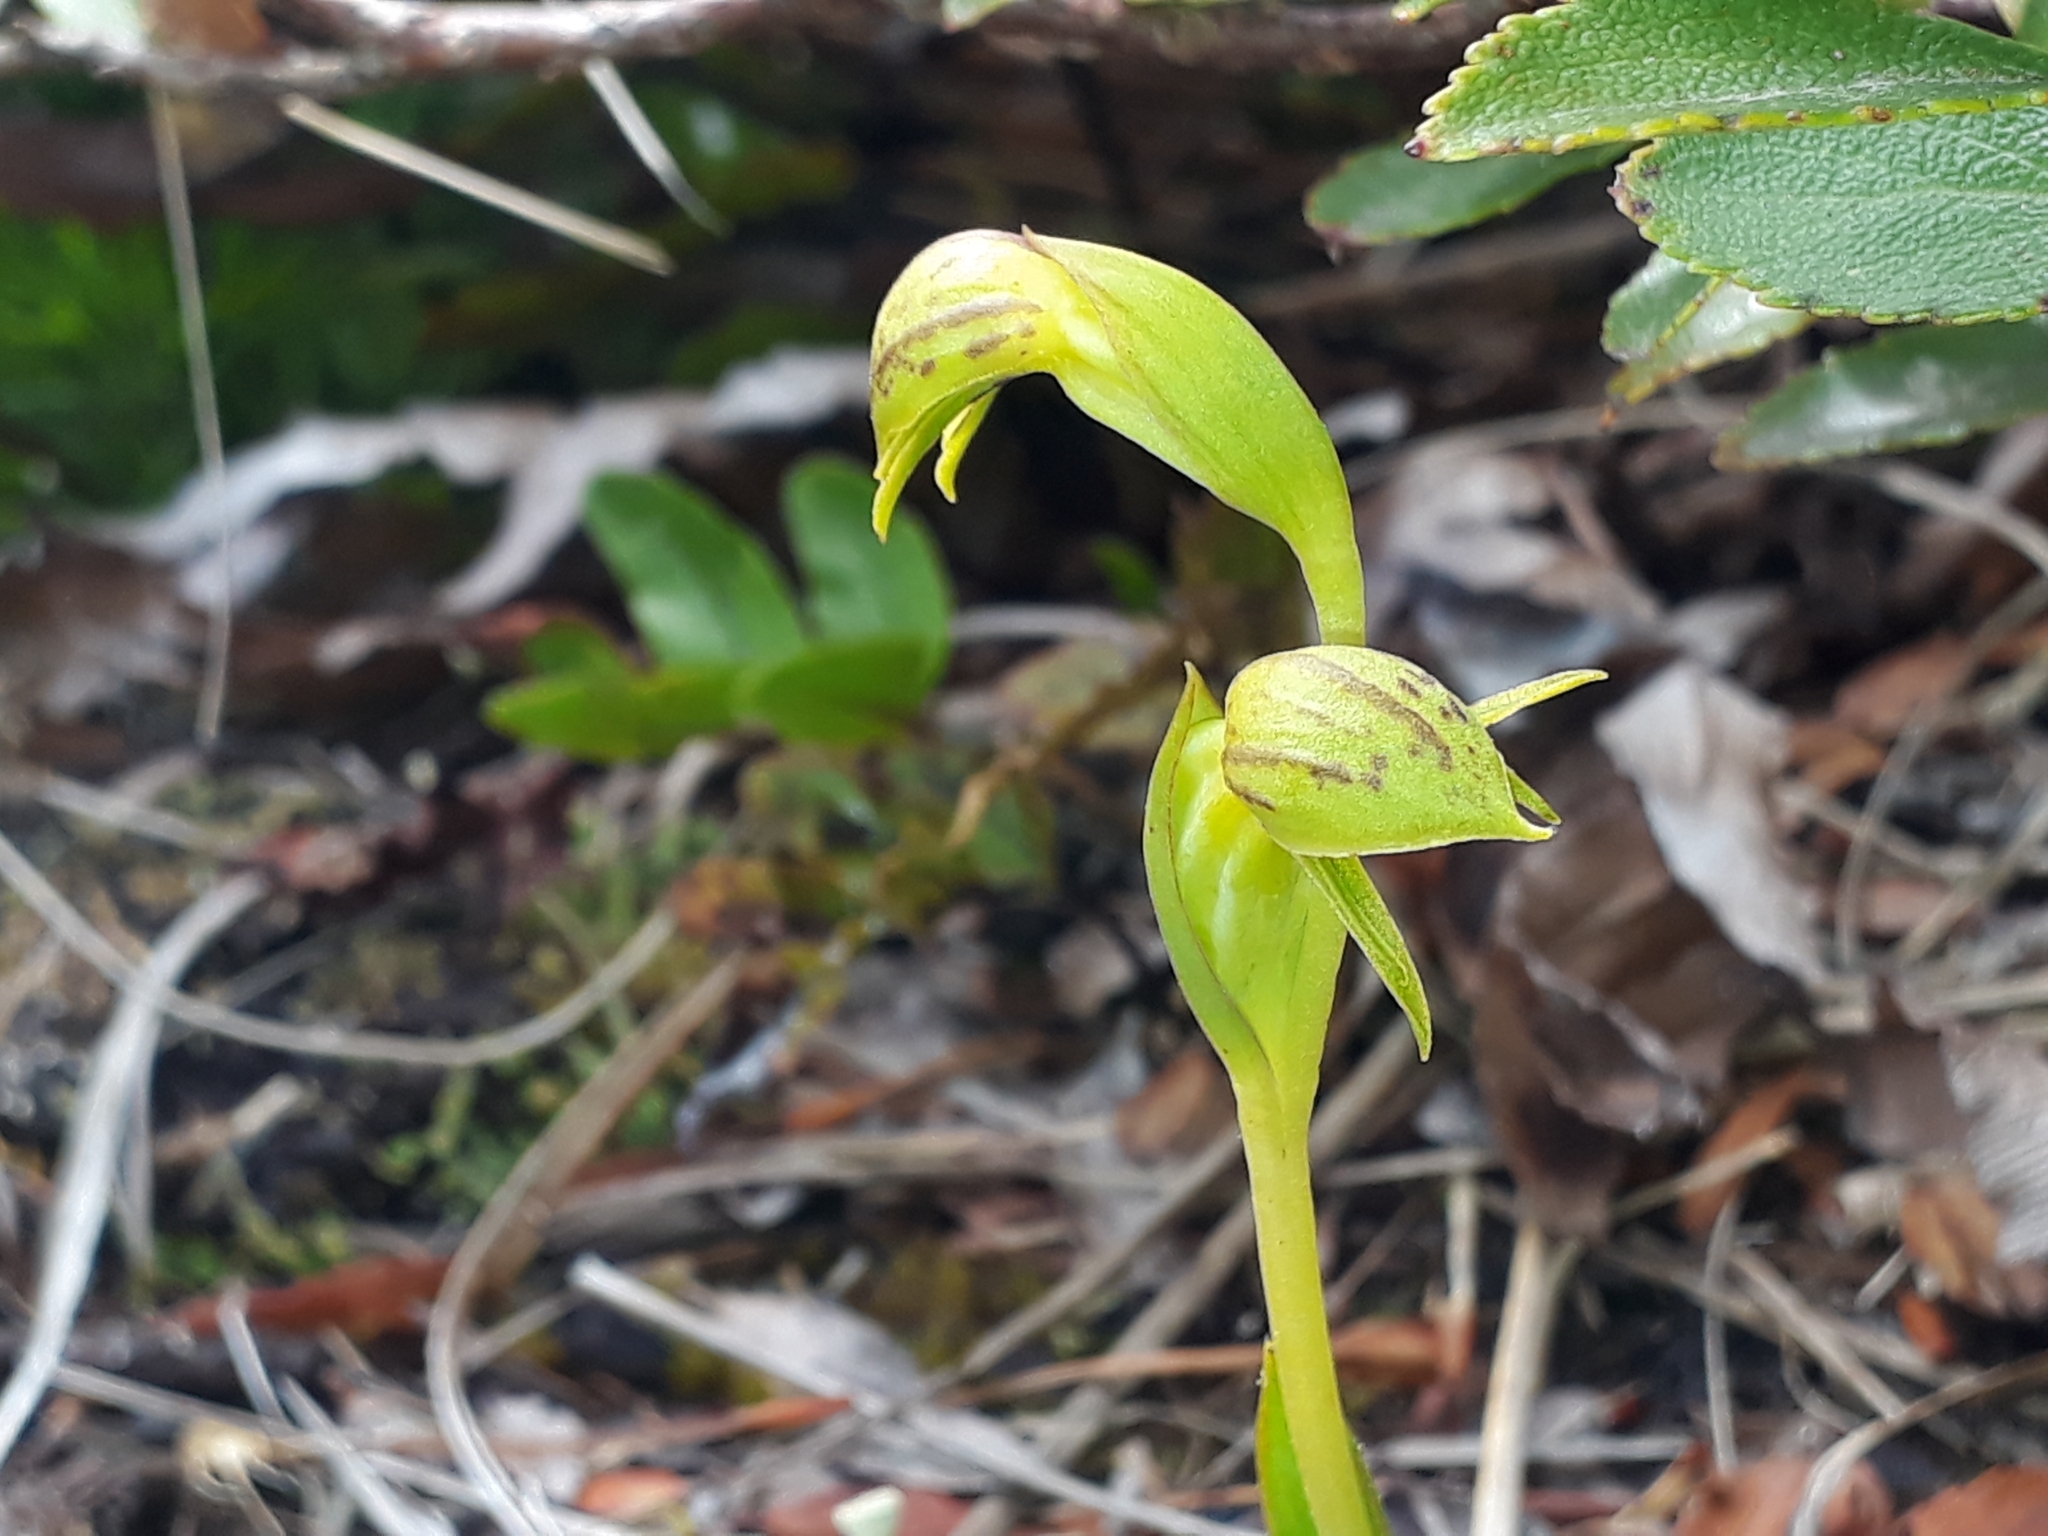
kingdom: Plantae
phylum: Tracheophyta
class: Liliopsida
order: Asparagales
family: Orchidaceae
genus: Waireia
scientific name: Waireia stenopetala
